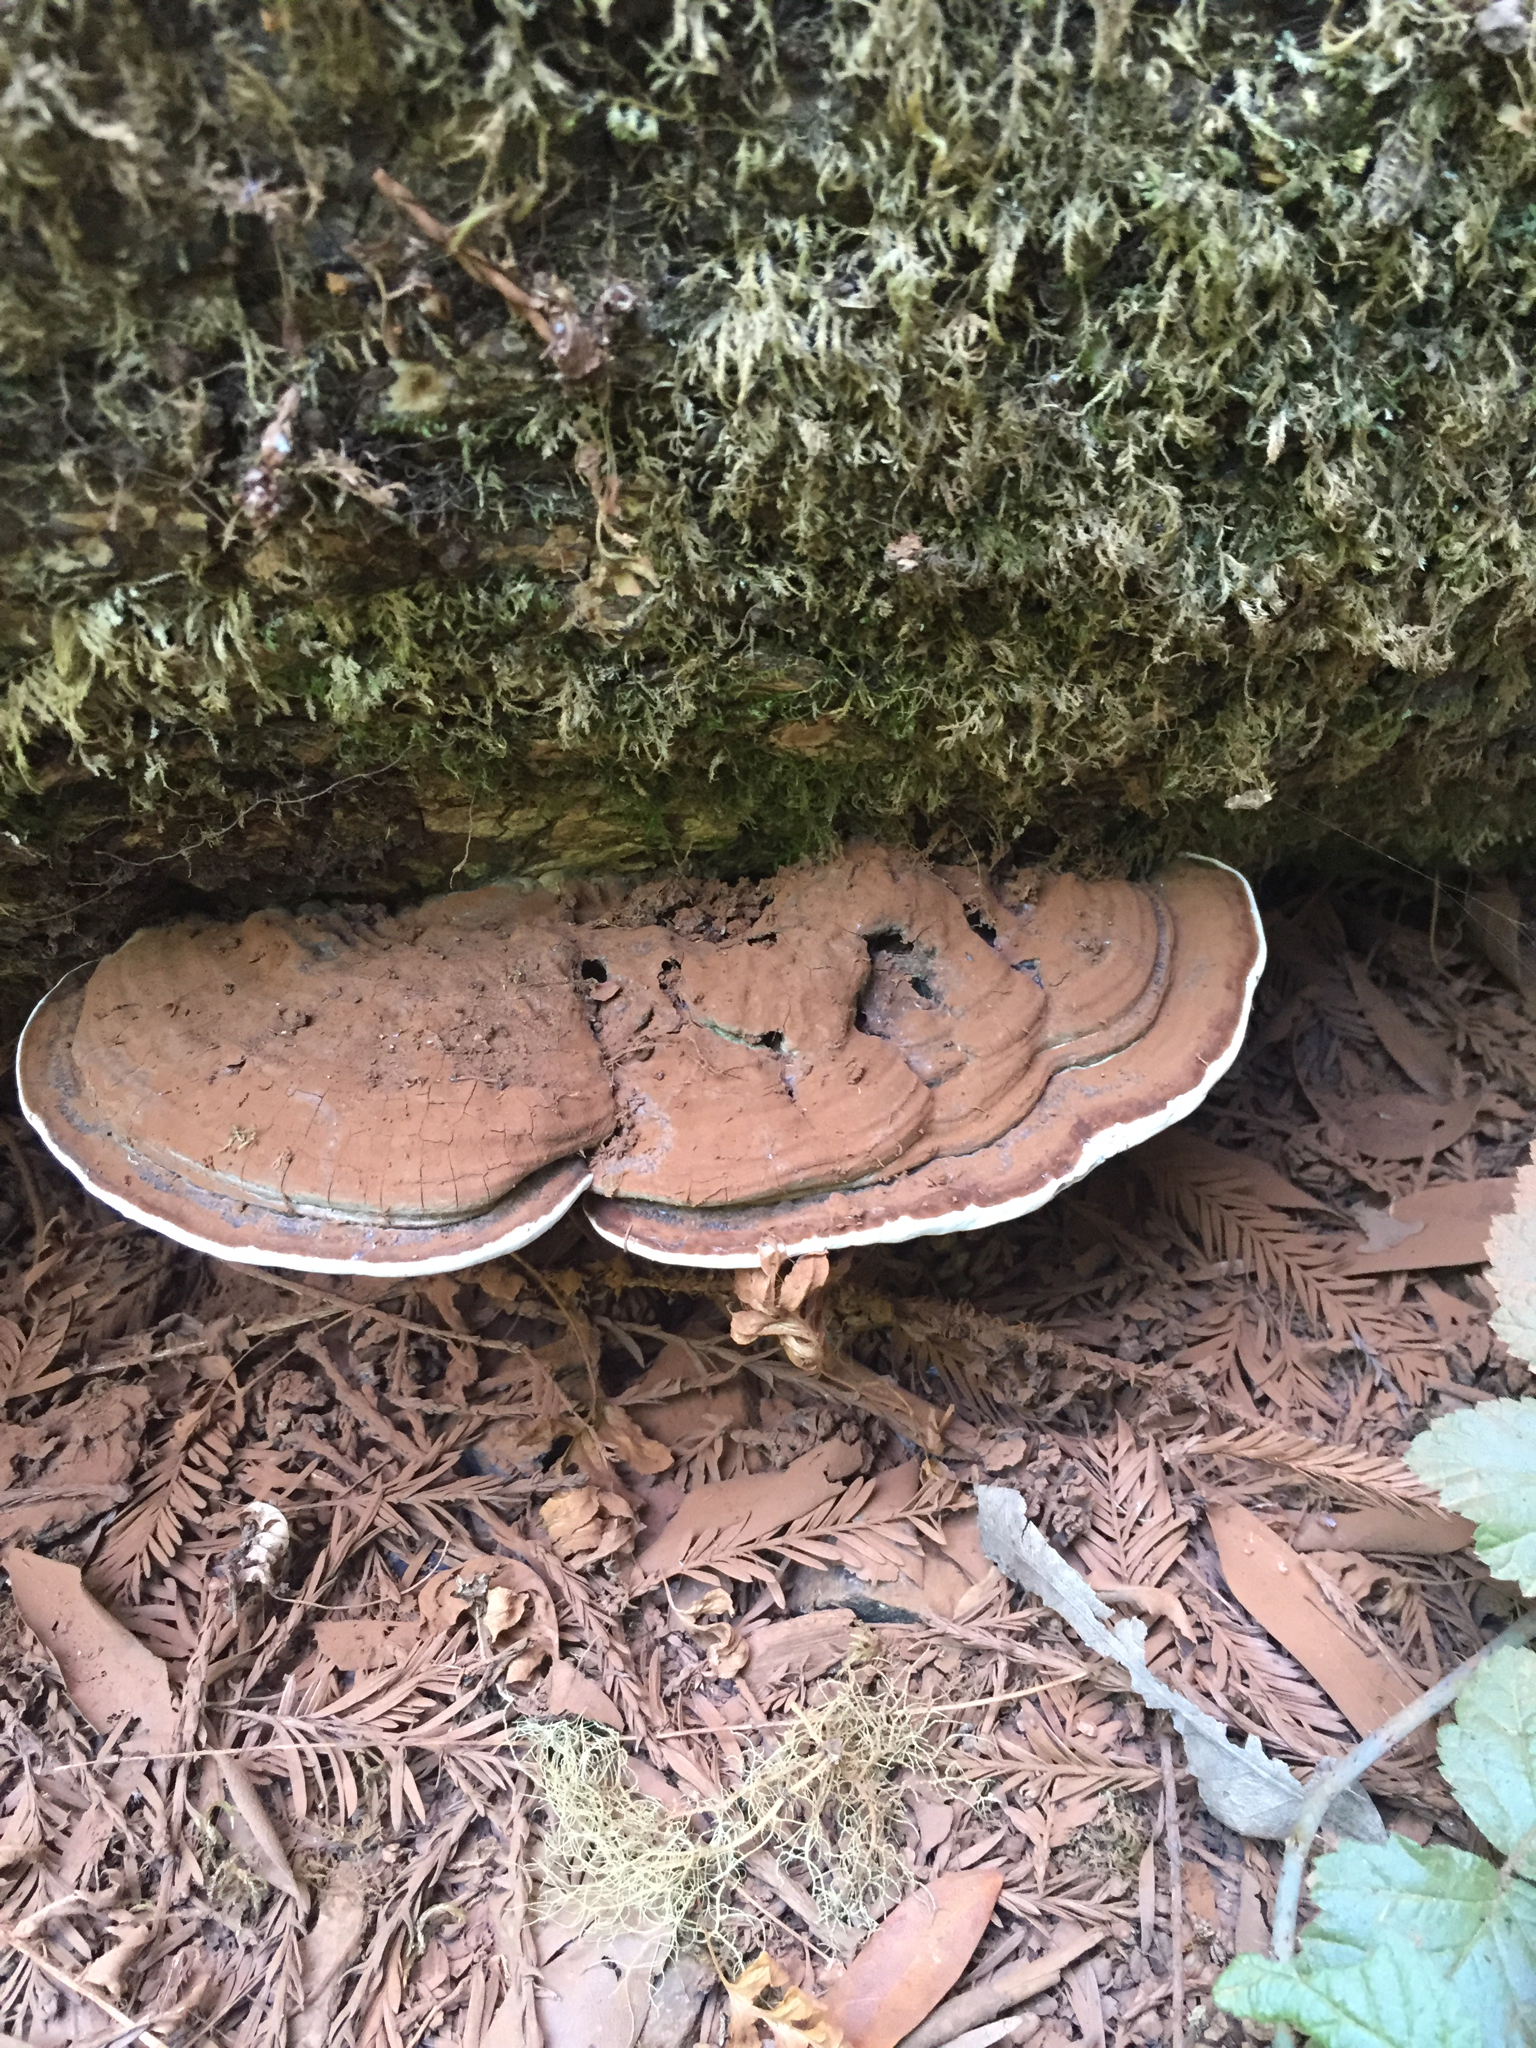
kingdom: Fungi
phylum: Basidiomycota
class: Agaricomycetes
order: Polyporales
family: Polyporaceae
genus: Ganoderma
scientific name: Ganoderma applanatum
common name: Artist's bracket
